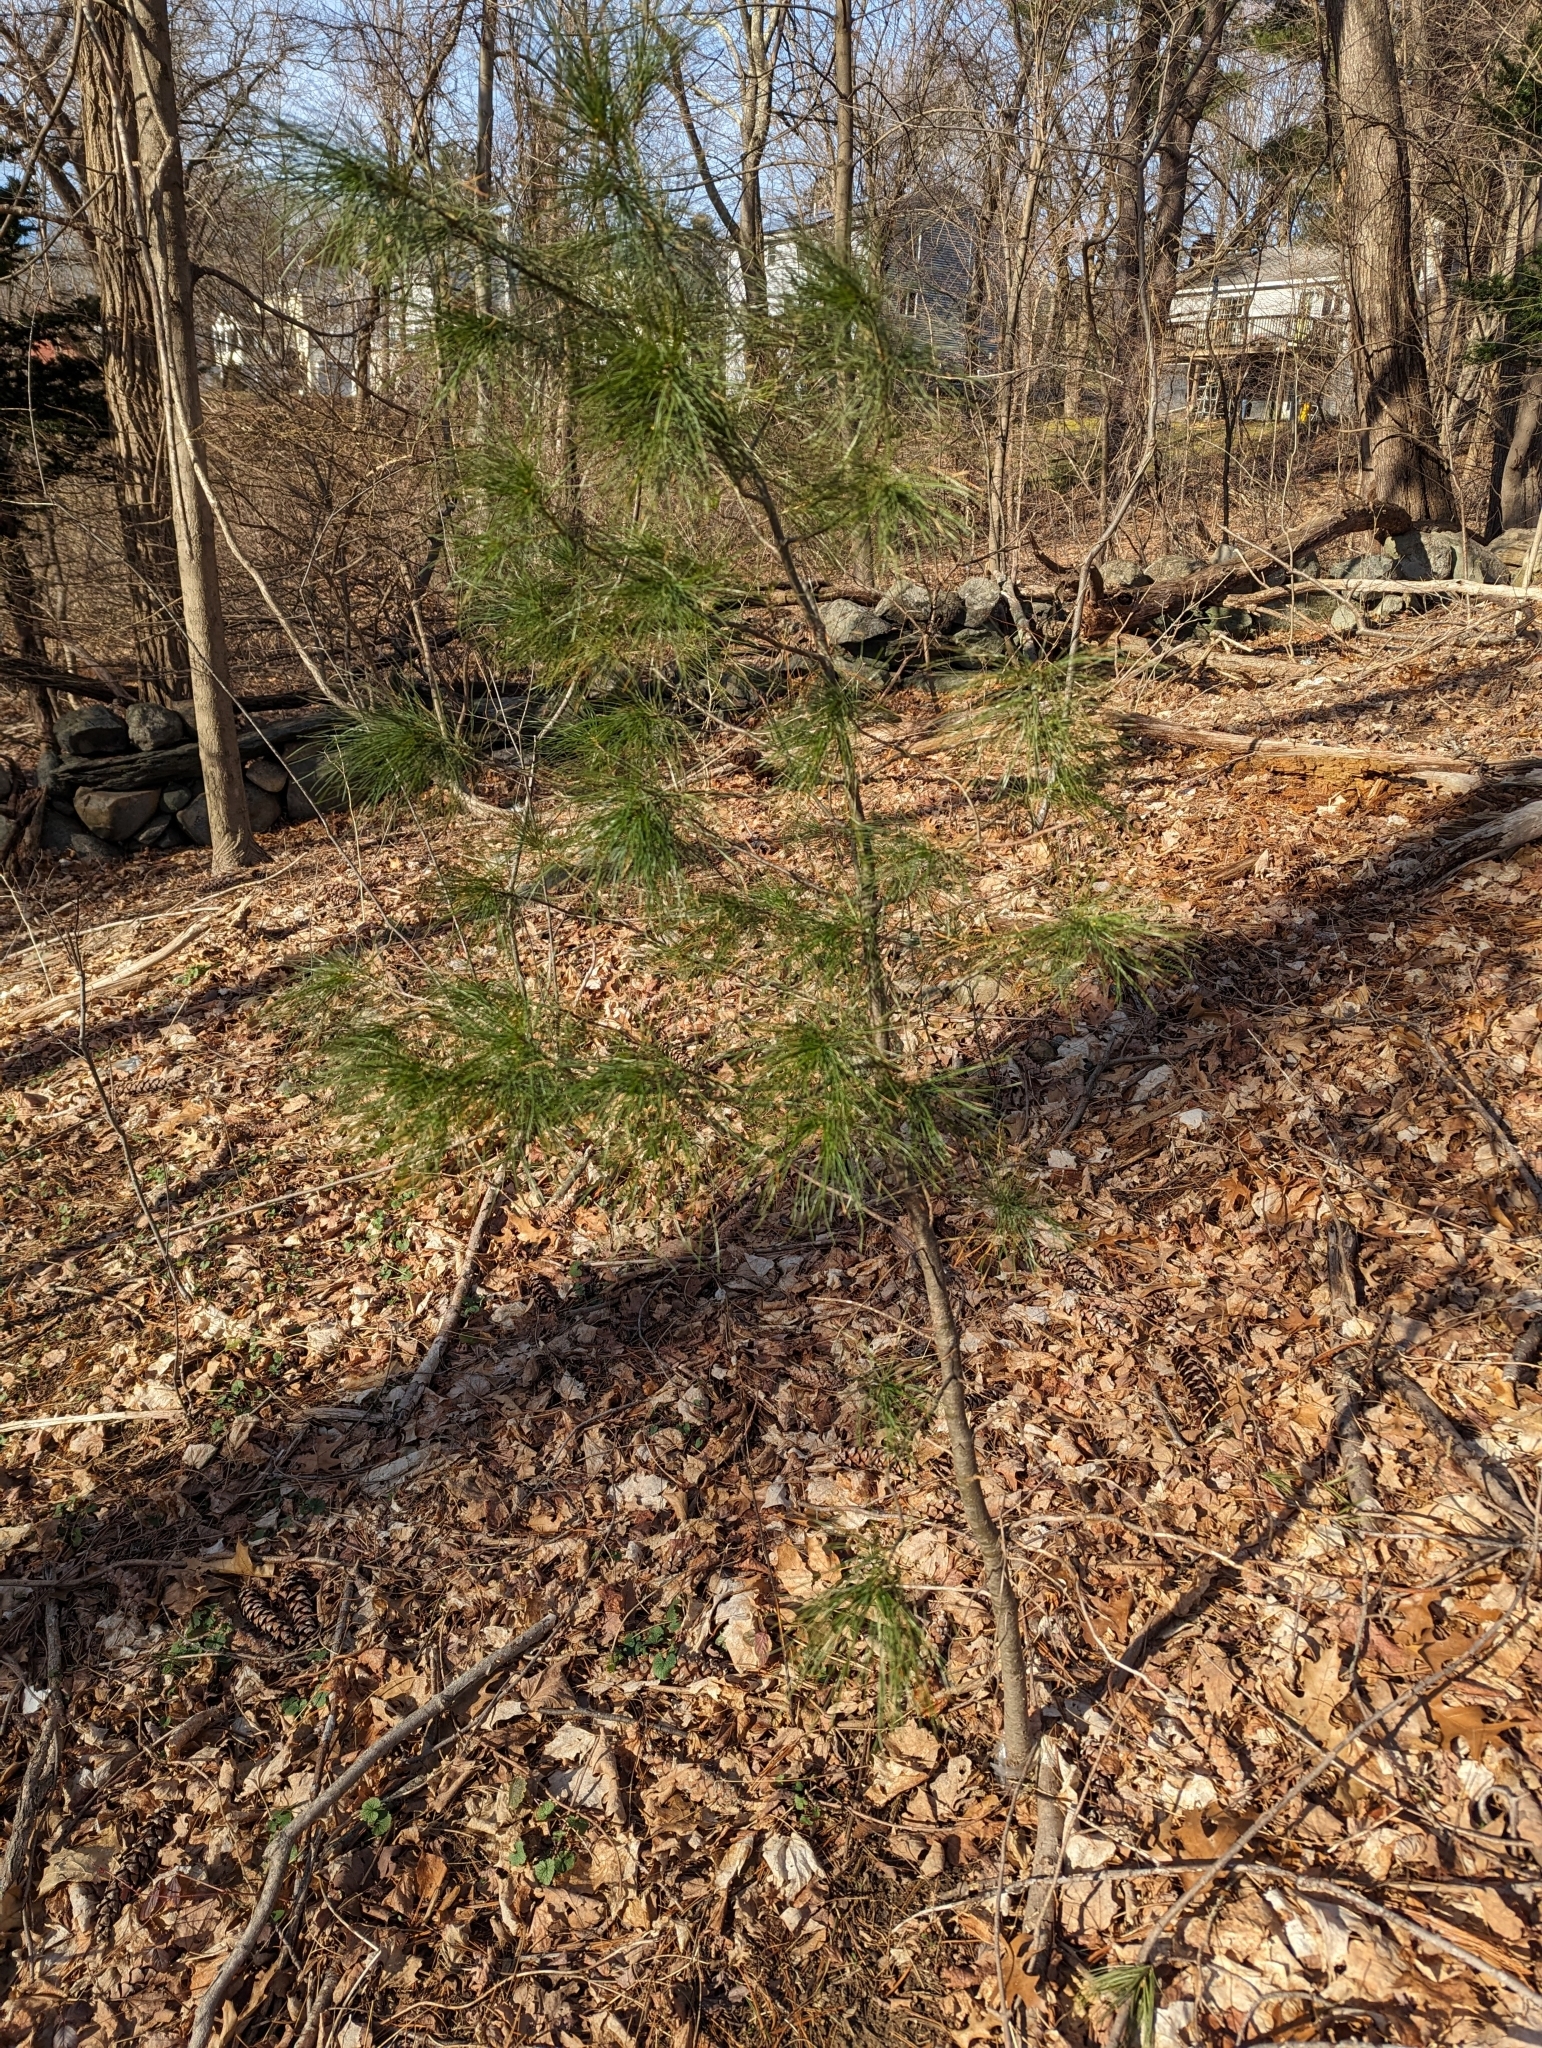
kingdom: Plantae
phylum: Tracheophyta
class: Pinopsida
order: Pinales
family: Pinaceae
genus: Pinus
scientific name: Pinus strobus
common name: Weymouth pine
